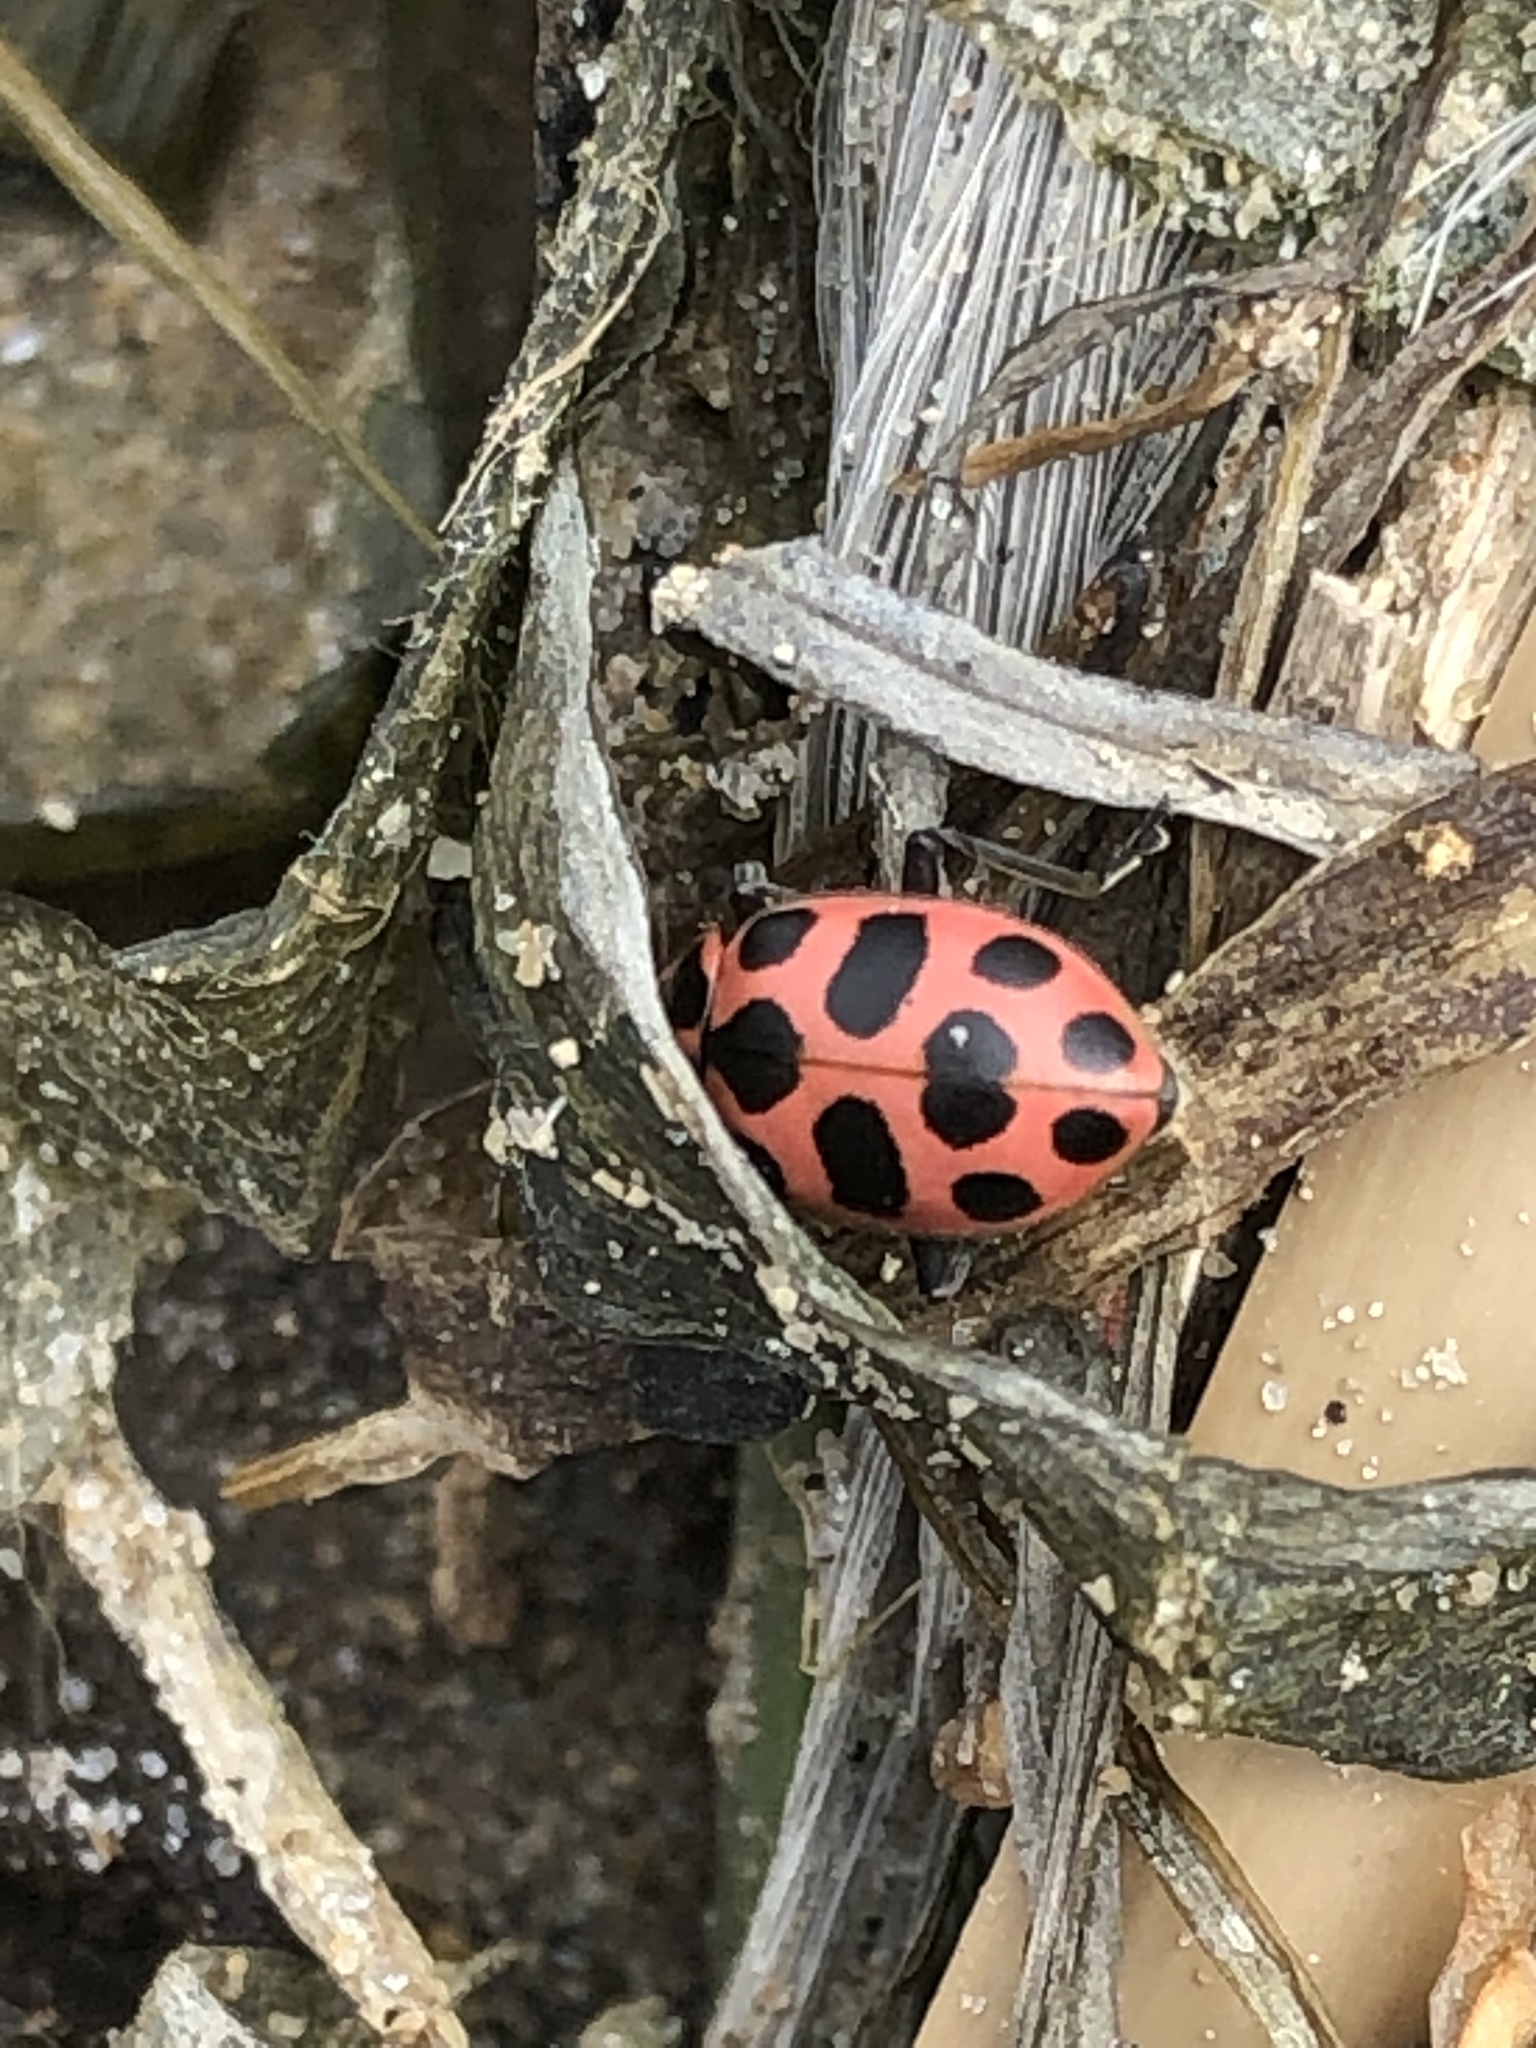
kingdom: Animalia
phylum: Arthropoda
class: Insecta
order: Coleoptera
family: Coccinellidae
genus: Coleomegilla
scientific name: Coleomegilla maculata
